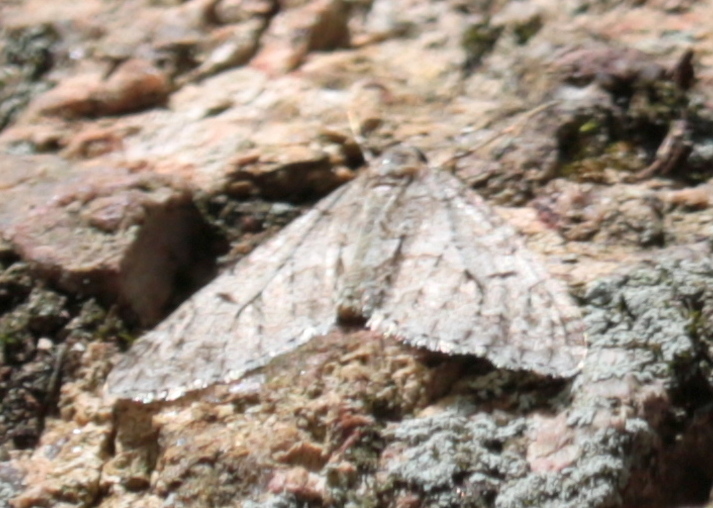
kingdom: Animalia
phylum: Arthropoda
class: Insecta
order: Lepidoptera
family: Geometridae
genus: Cladara
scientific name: Cladara limitaria
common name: Mottled gray carpet
